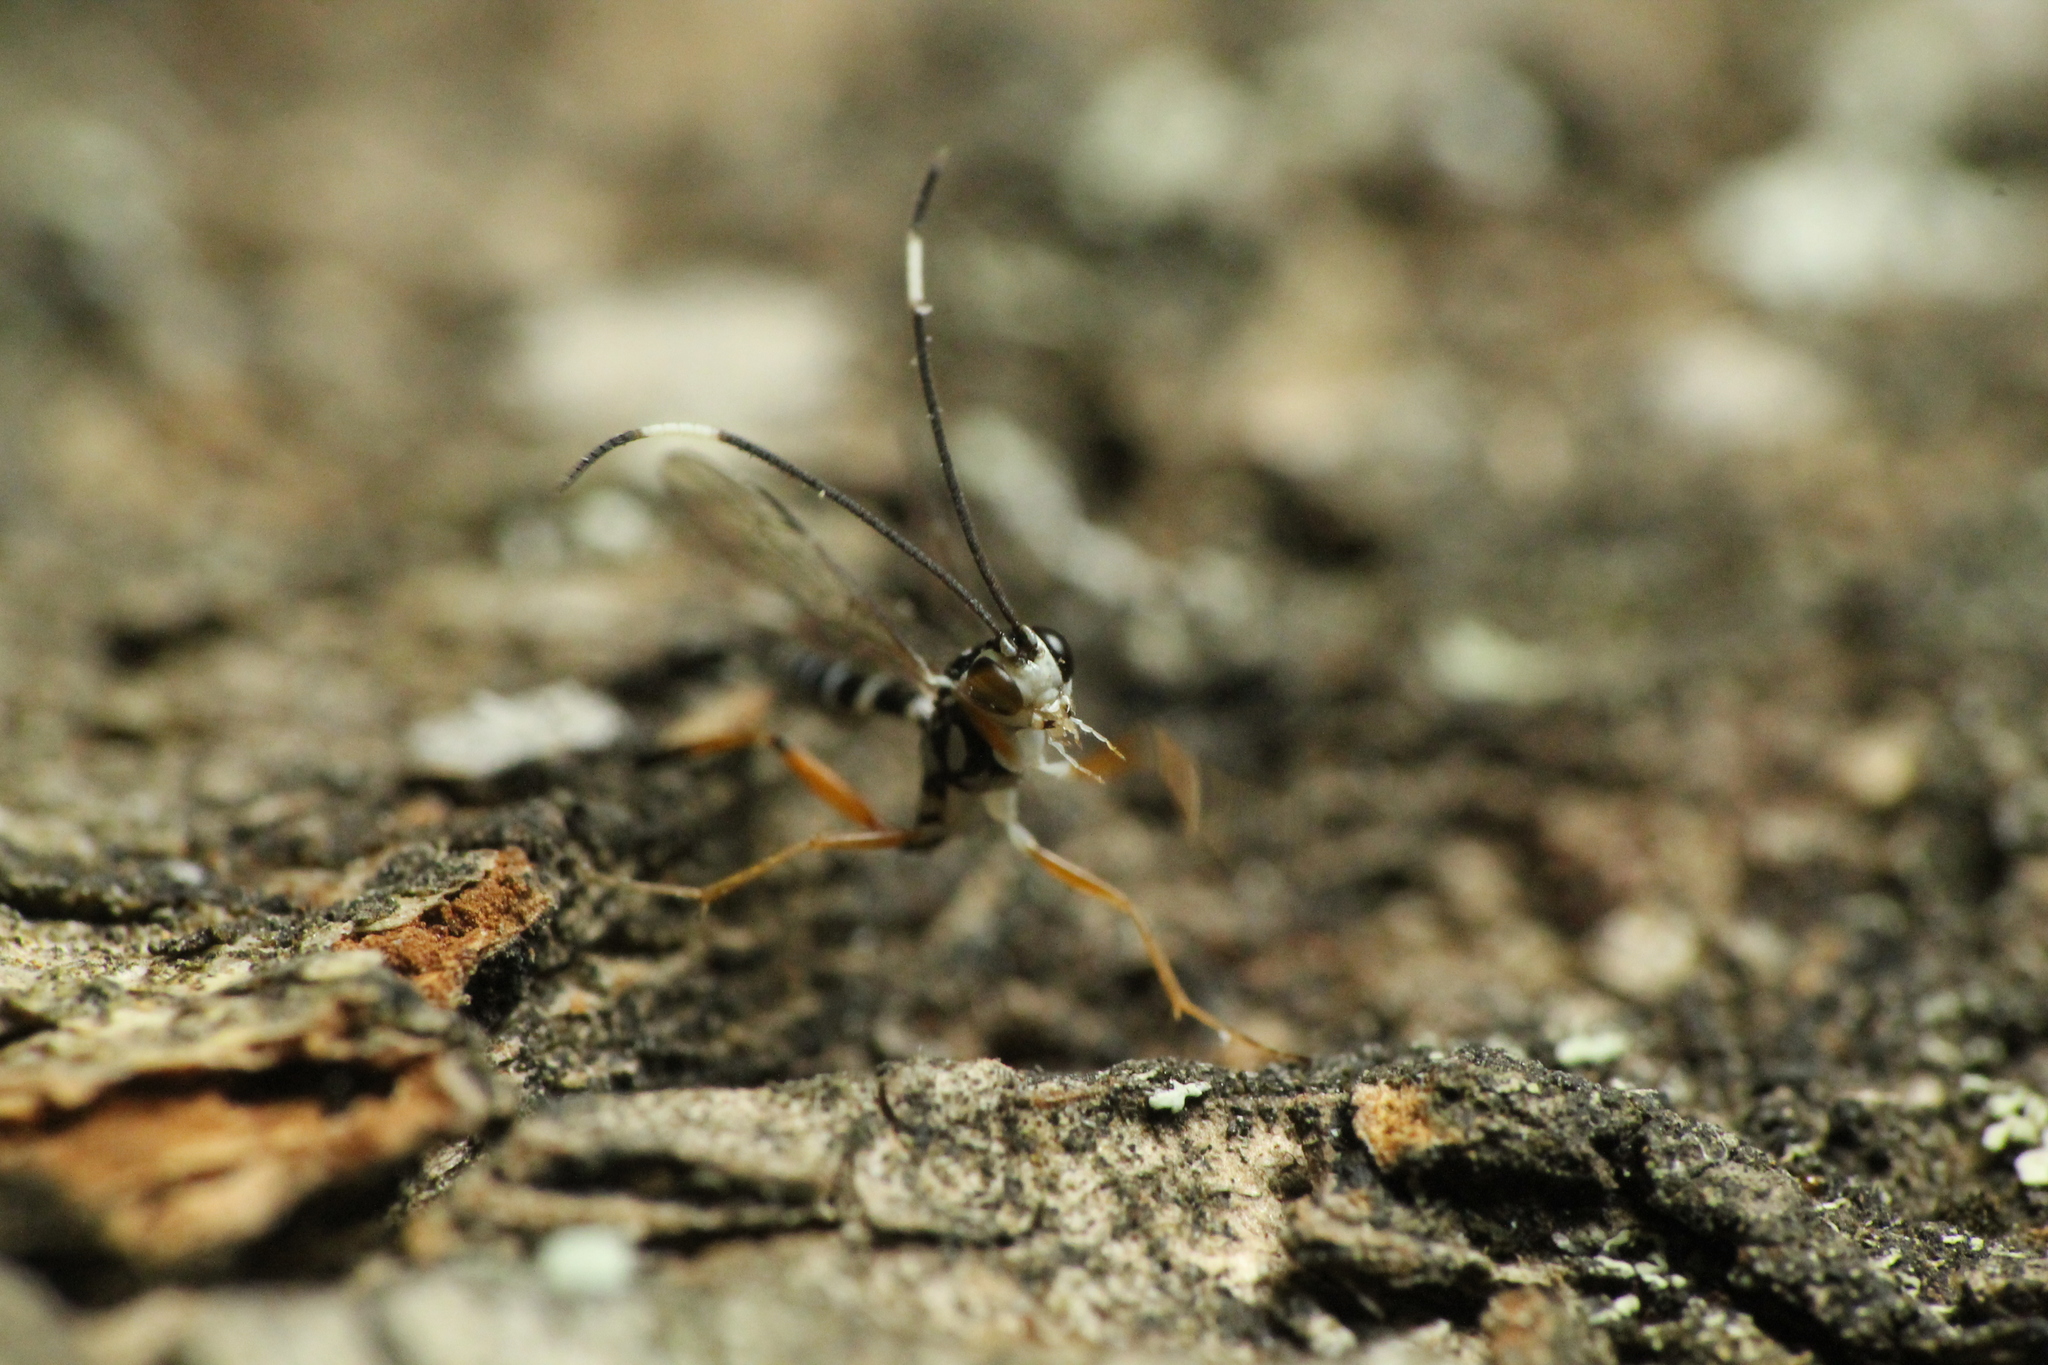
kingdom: Animalia
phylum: Arthropoda
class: Insecta
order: Hymenoptera
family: Ichneumonidae
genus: Glabridorsum
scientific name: Glabridorsum stokesii
